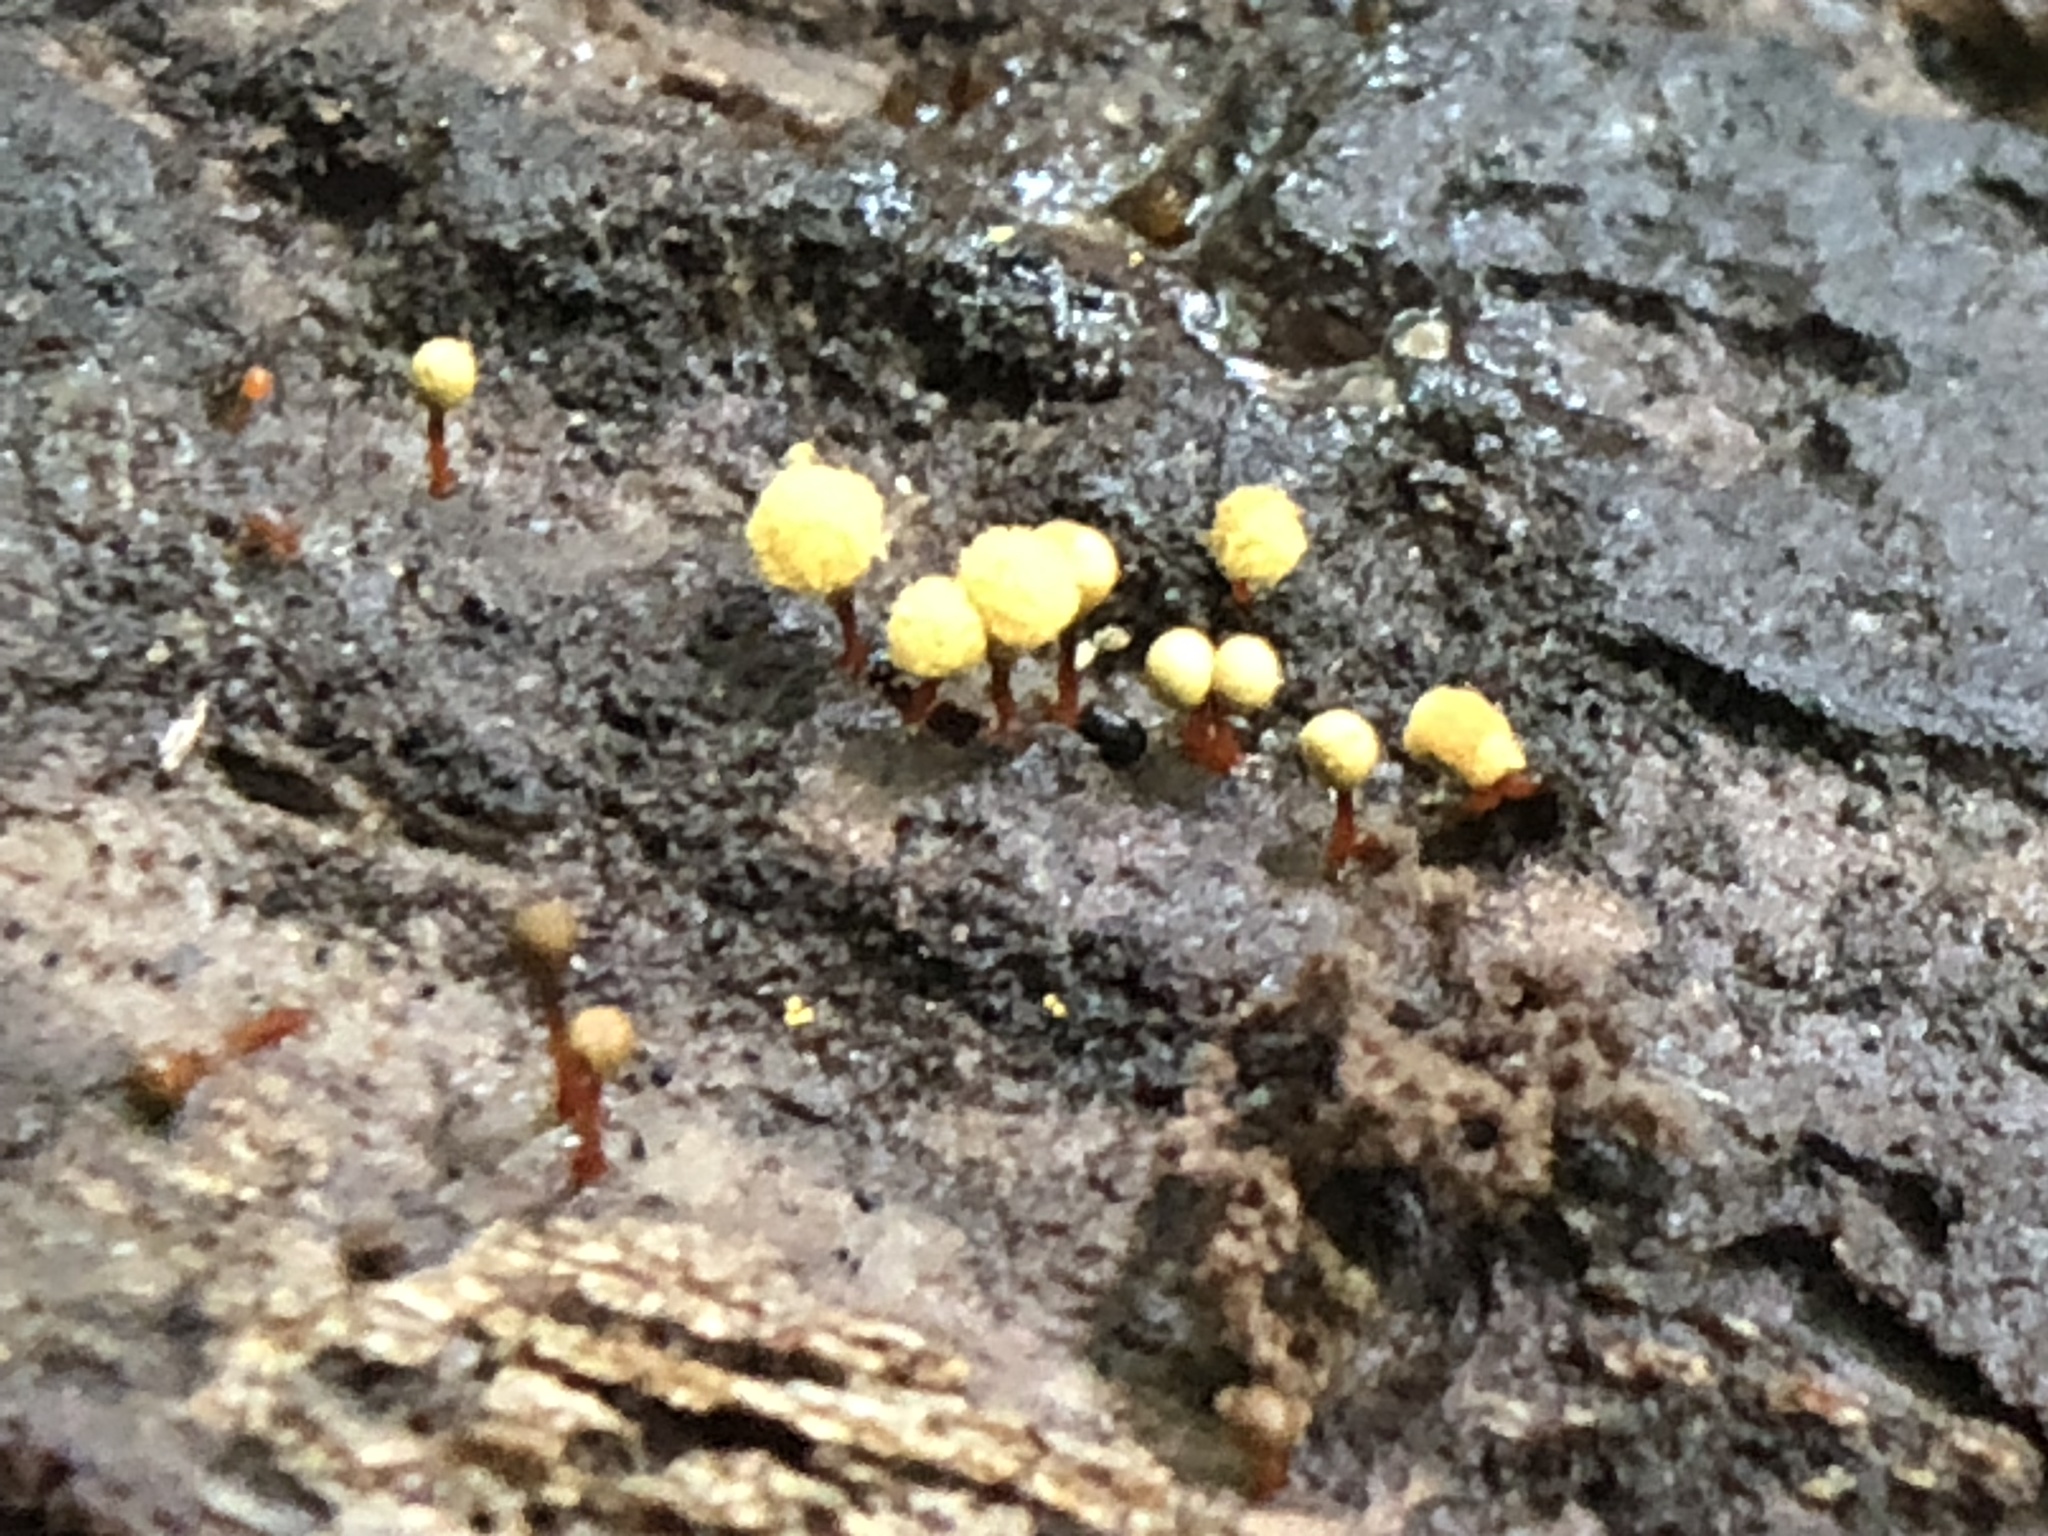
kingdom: Protozoa
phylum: Mycetozoa
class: Myxomycetes
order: Trichiales
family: Arcyriaceae
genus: Hemitrichia
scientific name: Hemitrichia calyculata
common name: Push pin slime mold
